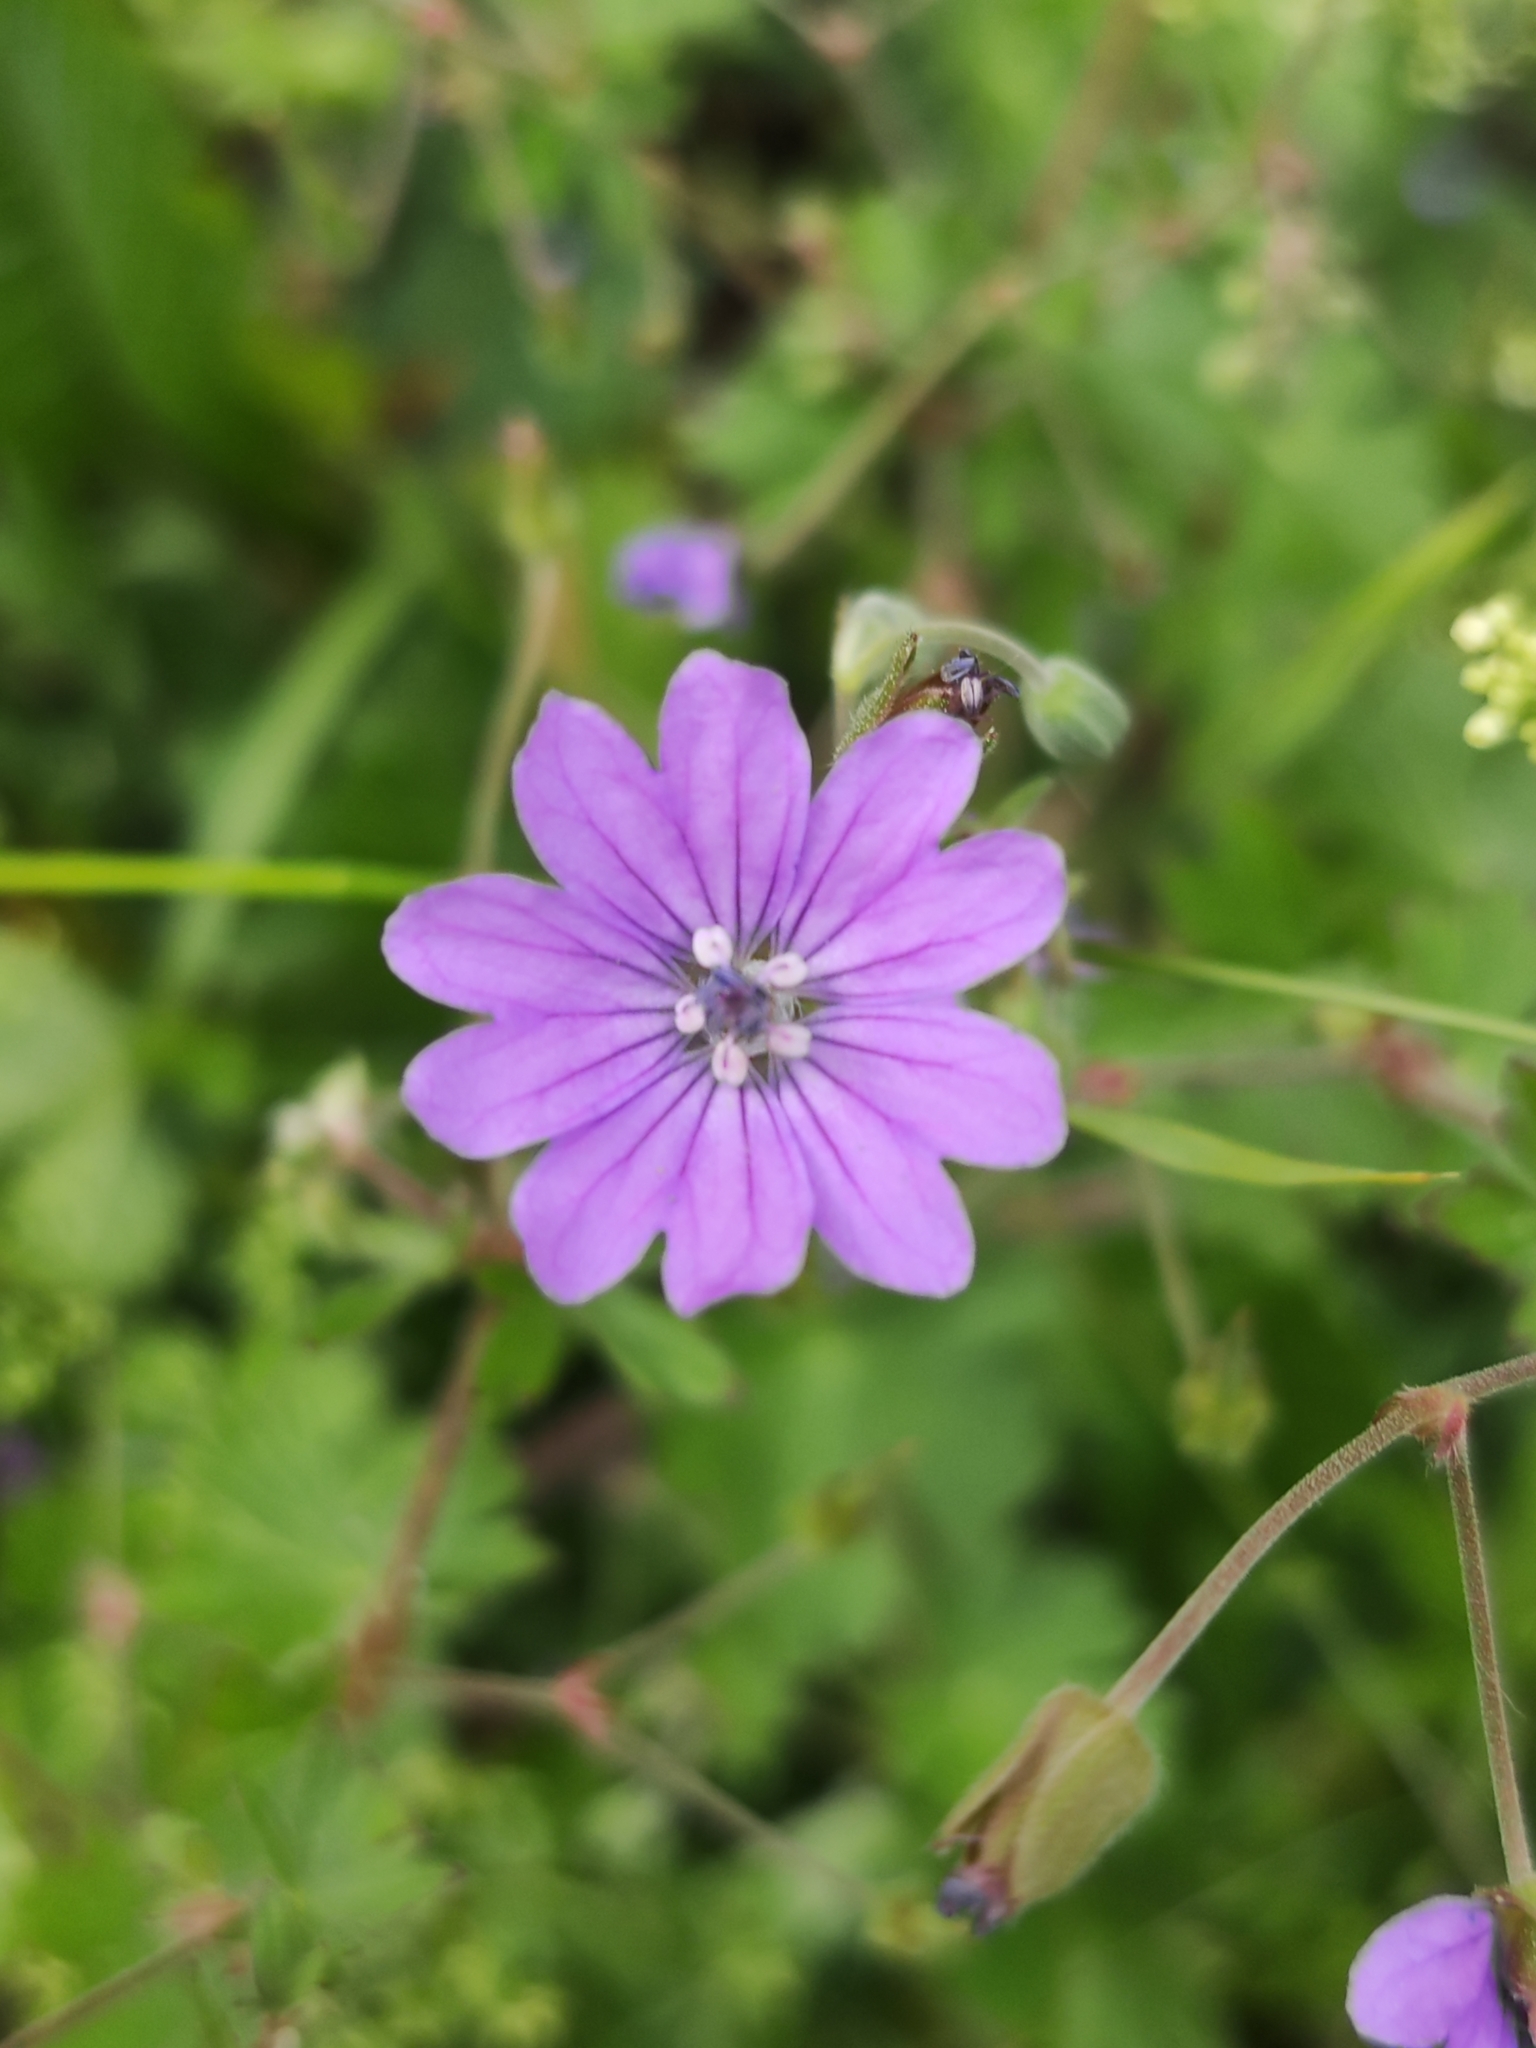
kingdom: Plantae
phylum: Tracheophyta
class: Magnoliopsida
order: Geraniales
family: Geraniaceae
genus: Geranium
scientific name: Geranium pyrenaicum
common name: Hedgerow crane's-bill
